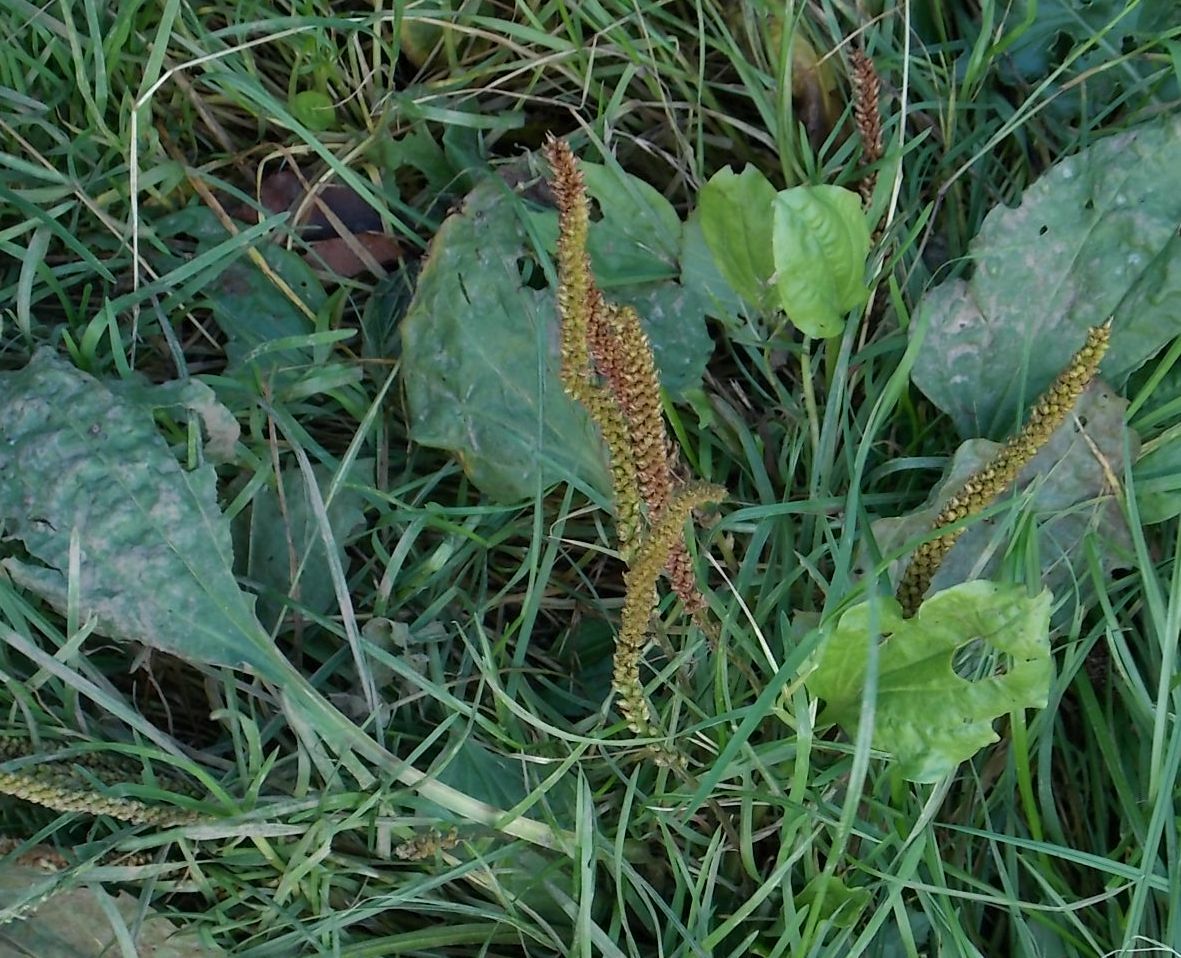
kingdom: Plantae
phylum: Tracheophyta
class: Magnoliopsida
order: Lamiales
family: Plantaginaceae
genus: Plantago
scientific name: Plantago major
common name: Common plantain
